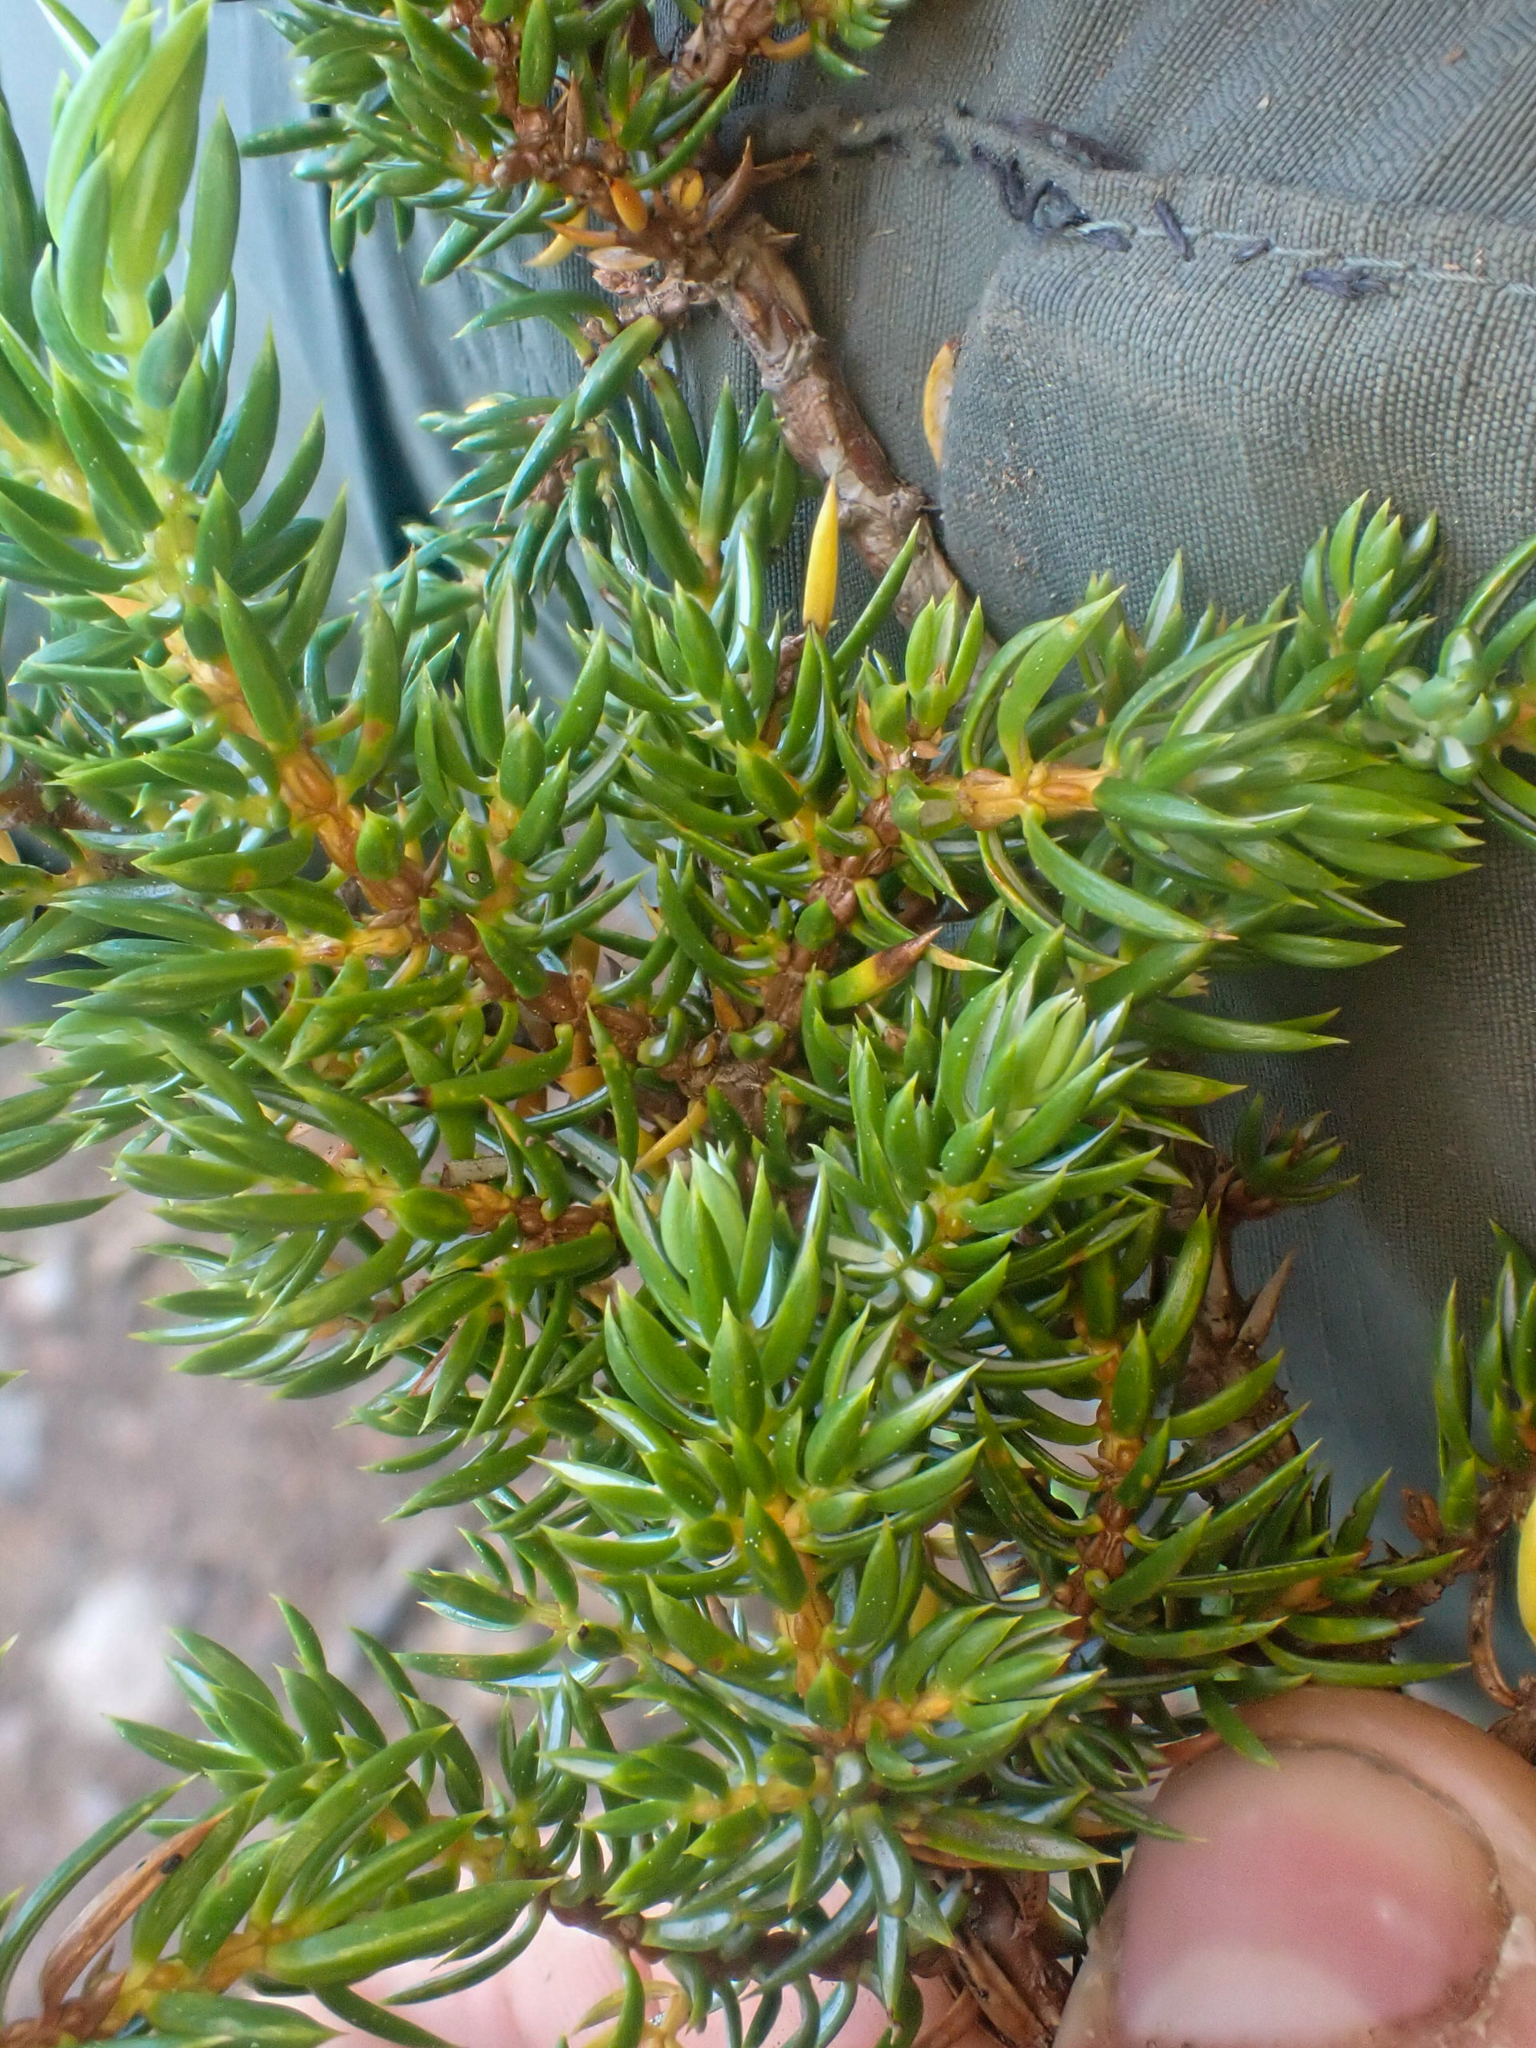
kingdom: Plantae
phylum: Tracheophyta
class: Pinopsida
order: Pinales
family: Cupressaceae
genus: Juniperus
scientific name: Juniperus communis
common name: Common juniper
